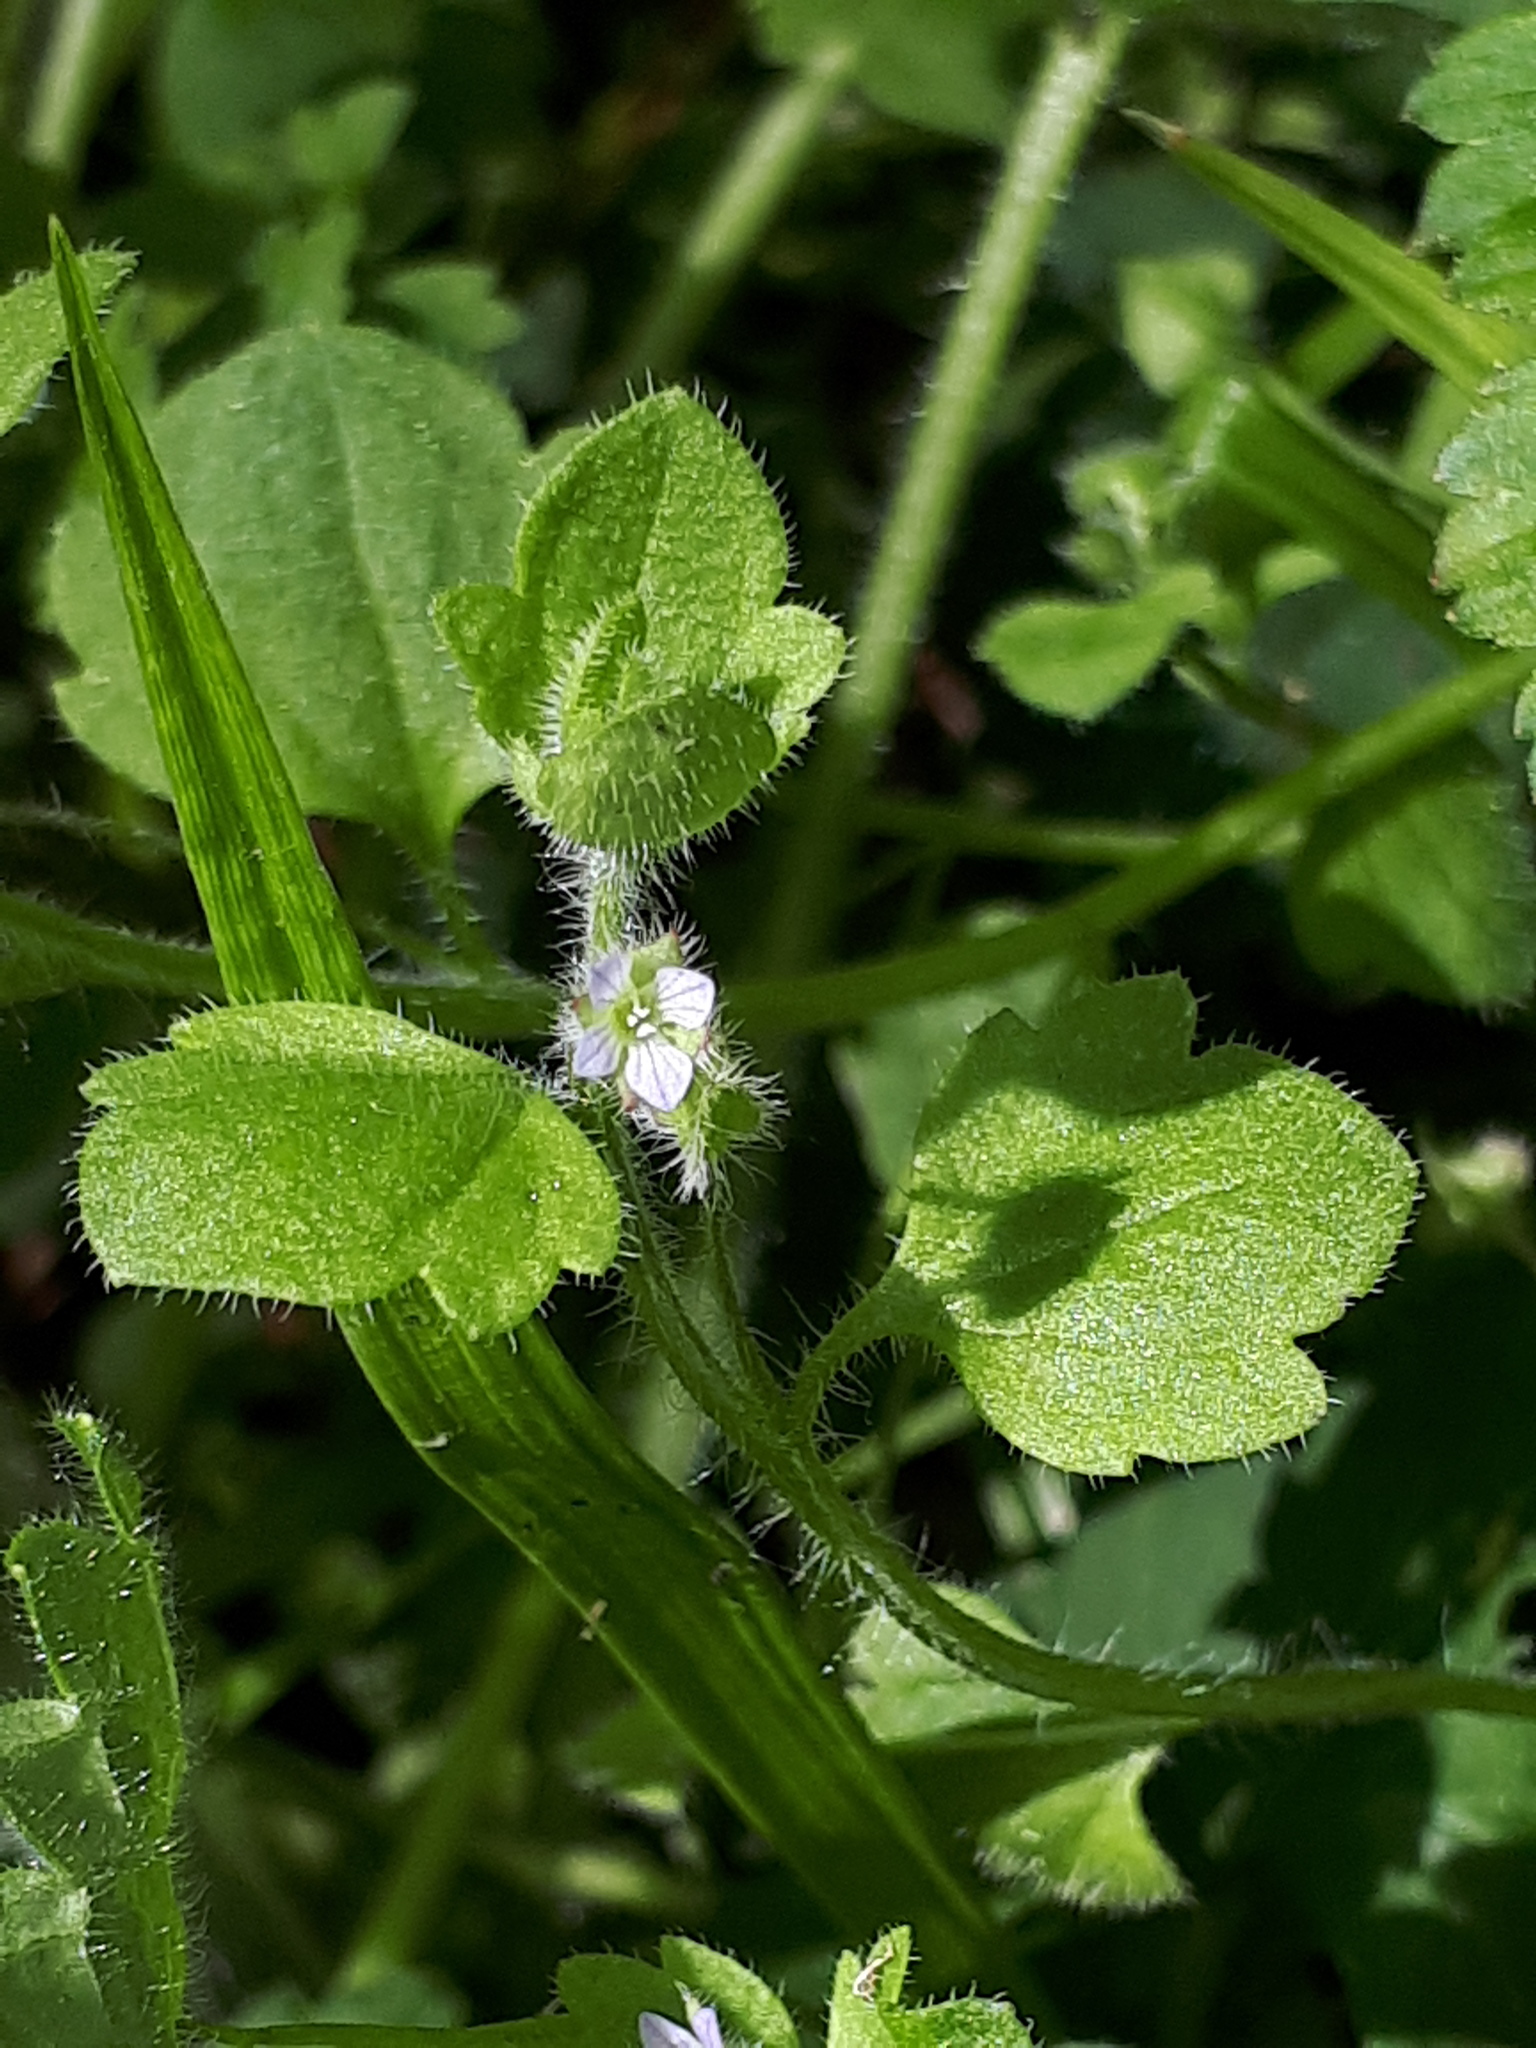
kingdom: Plantae
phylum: Tracheophyta
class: Magnoliopsida
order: Lamiales
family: Plantaginaceae
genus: Veronica
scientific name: Veronica sublobata
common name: False ivy-leaved speedwell
